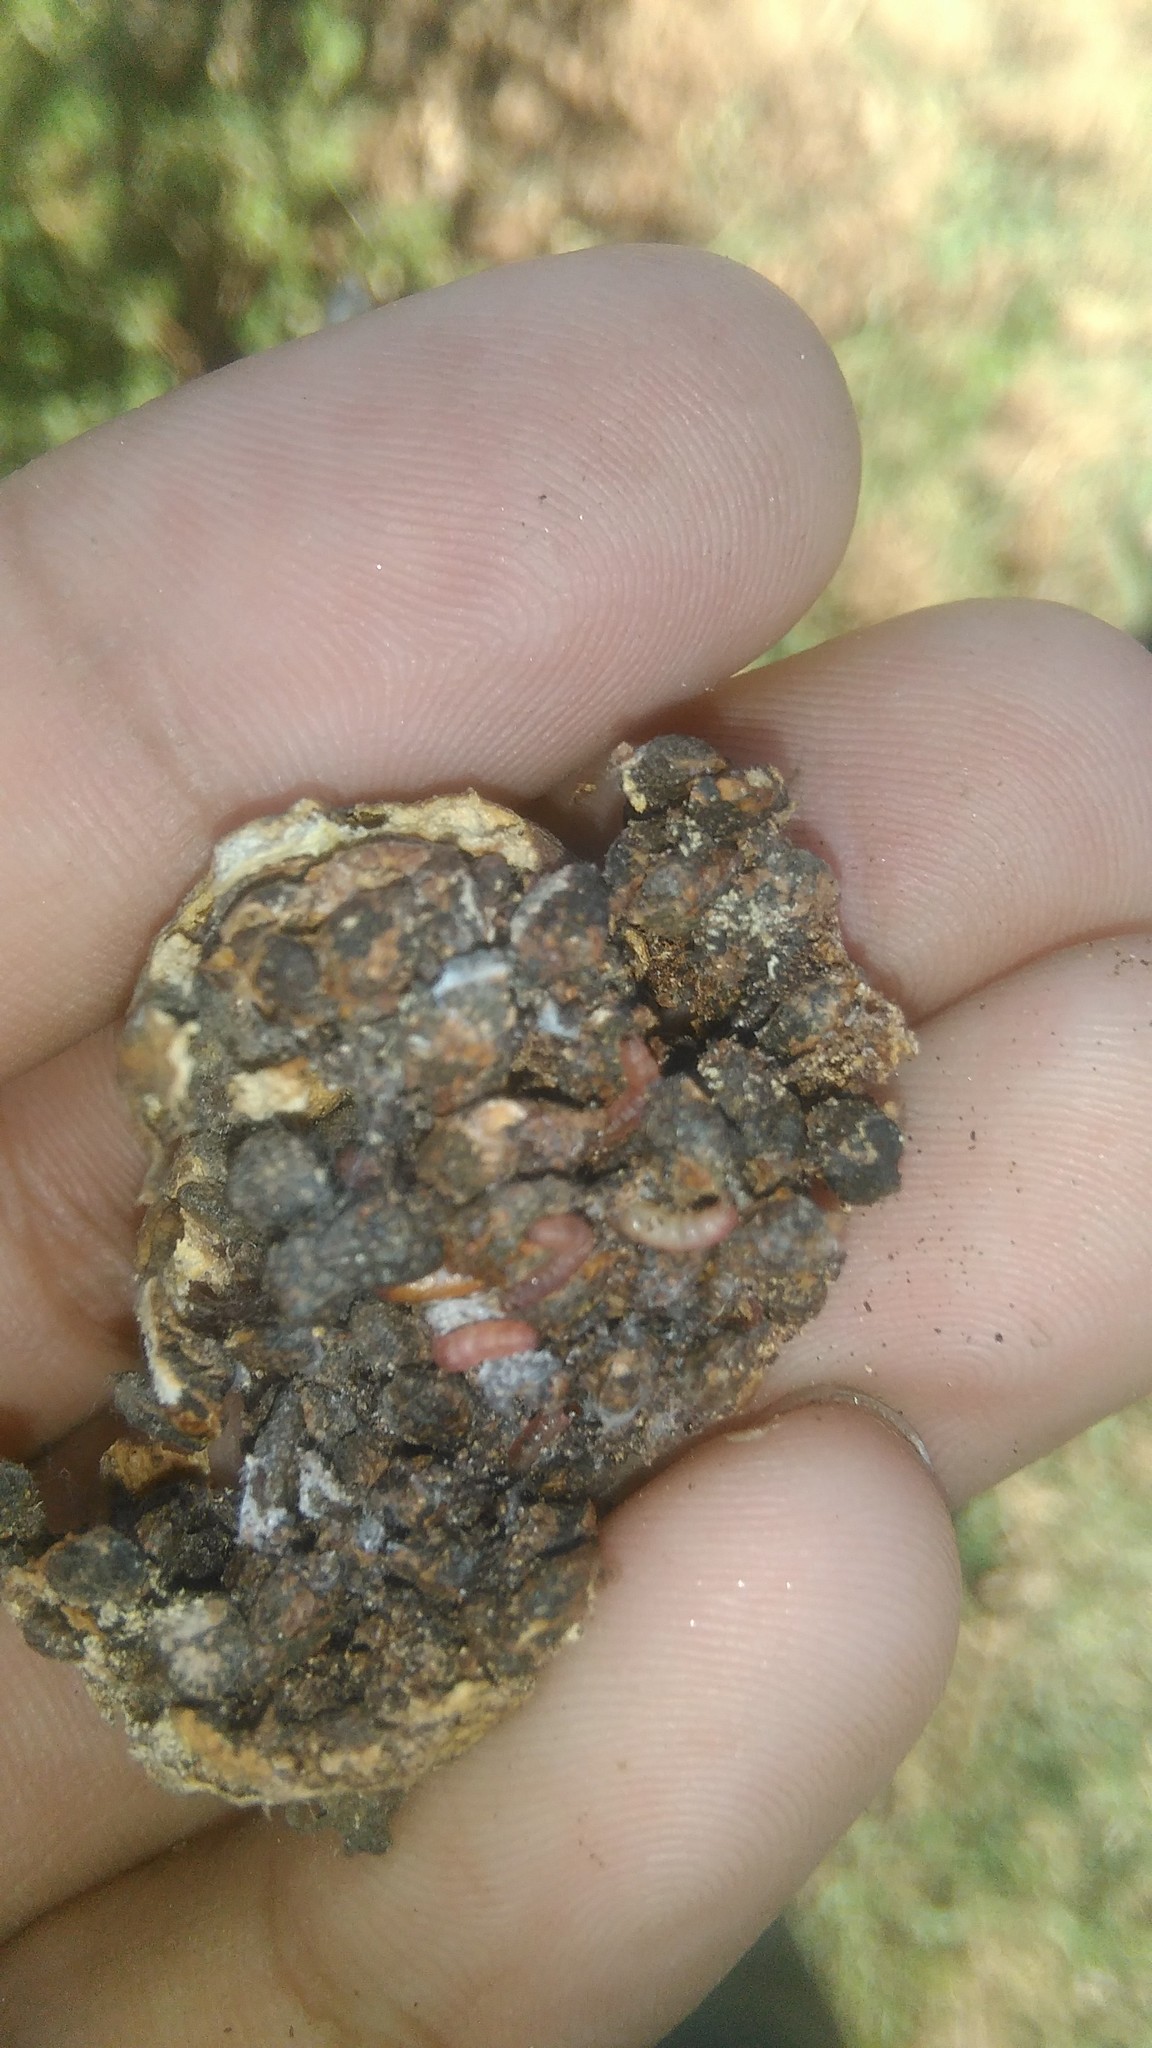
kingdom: Plantae
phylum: Tracheophyta
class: Magnoliopsida
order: Malpighiales
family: Passifloraceae
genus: Passiflora
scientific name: Passiflora caerulea
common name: Blue passionflower
